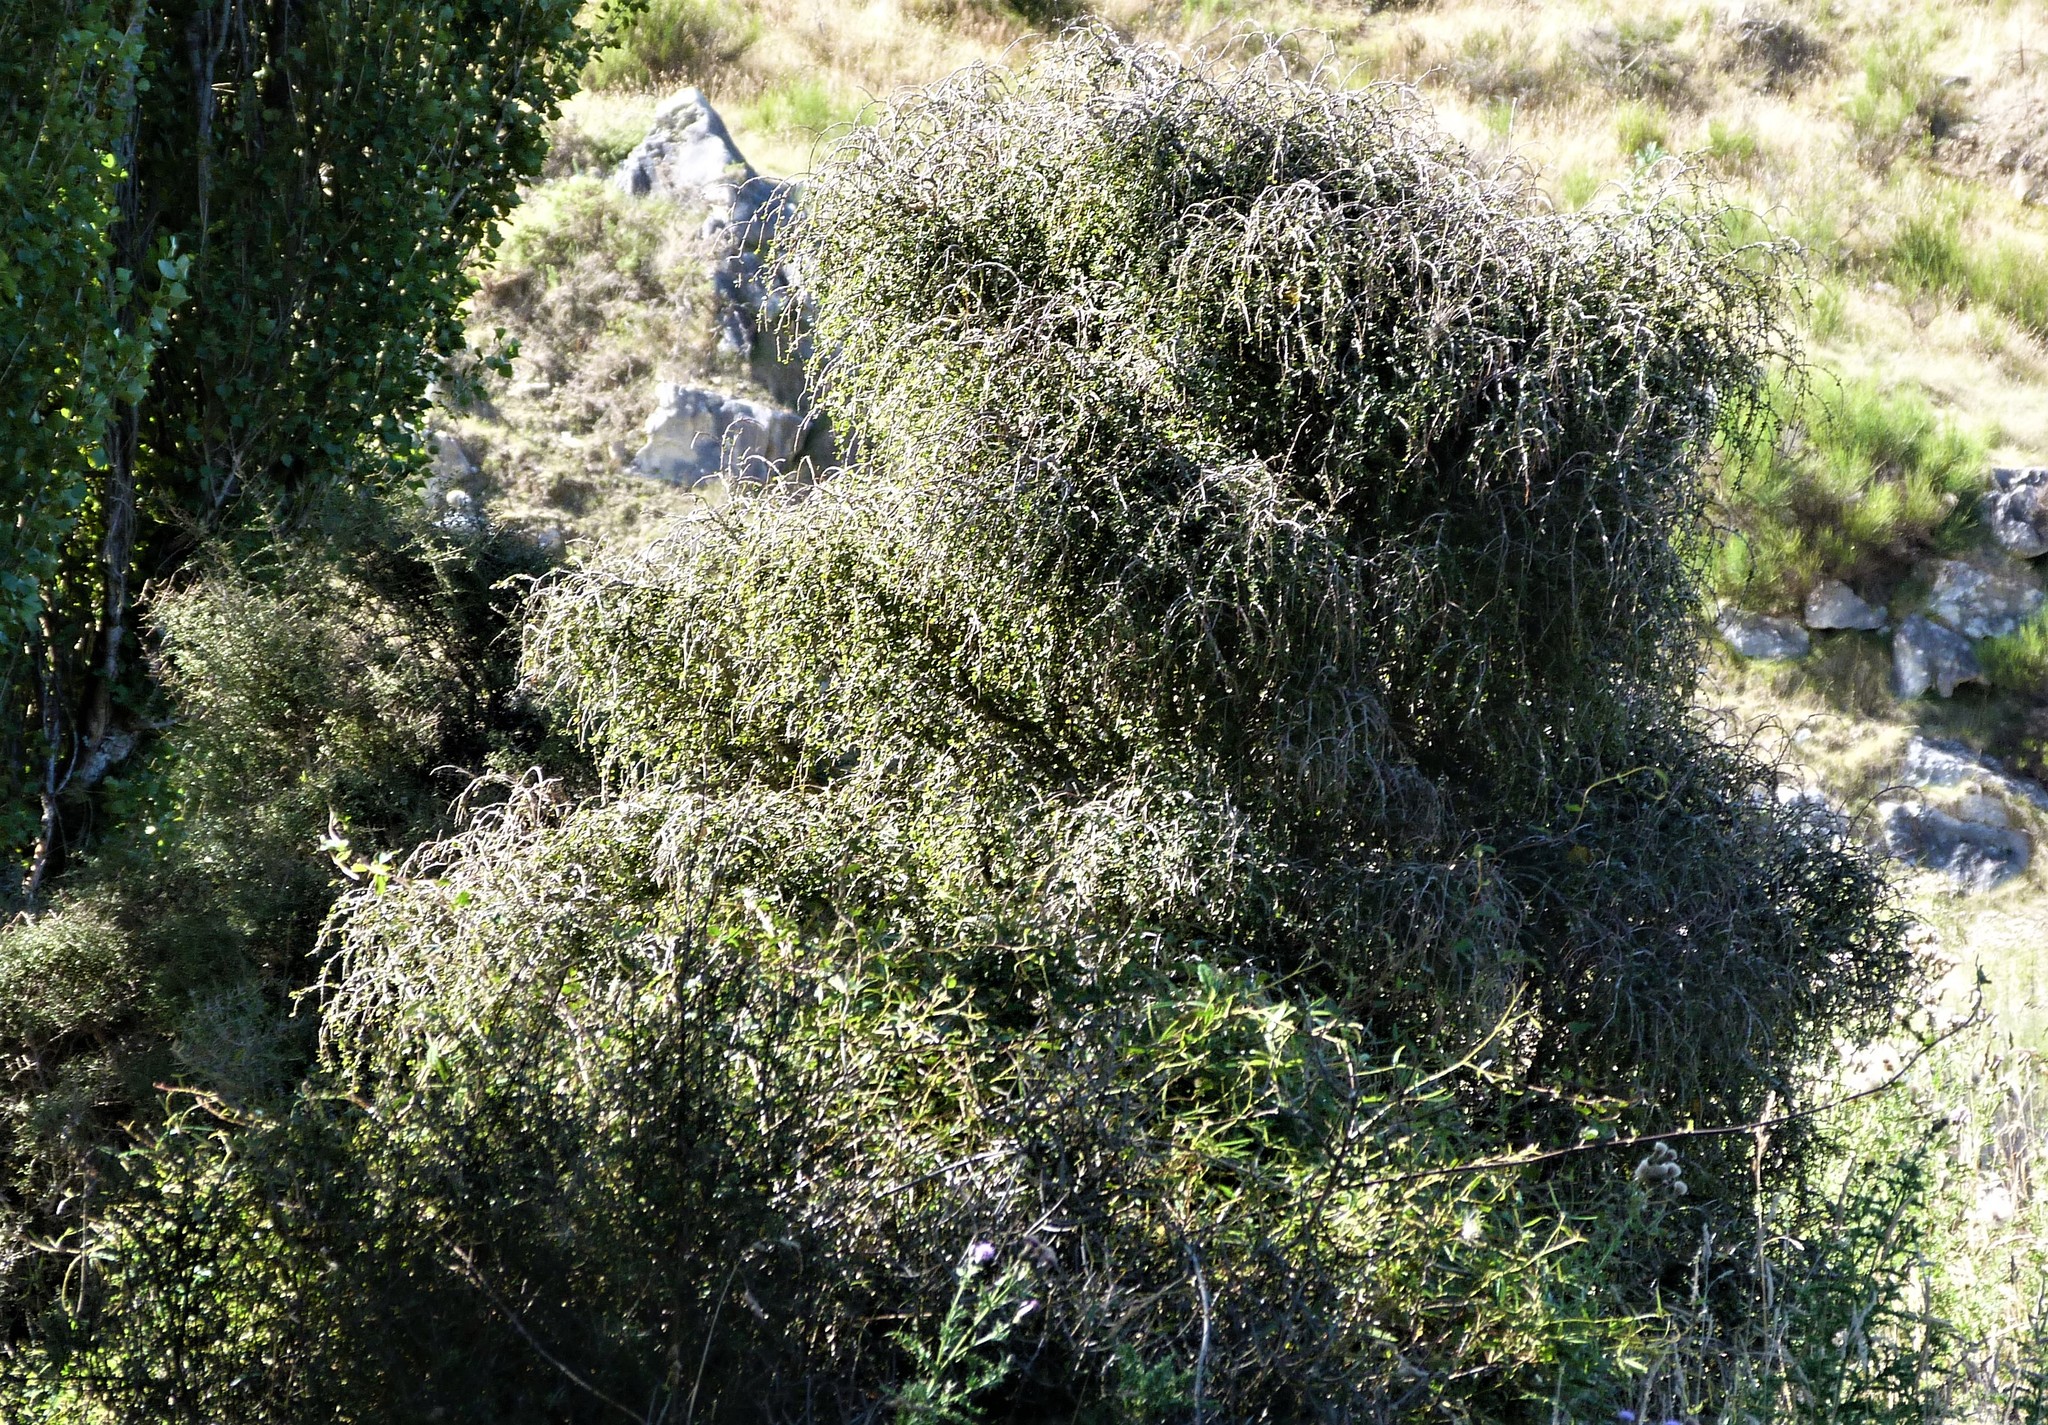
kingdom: Plantae
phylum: Tracheophyta
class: Magnoliopsida
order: Ericales
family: Primulaceae
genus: Myrsine
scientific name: Myrsine divaricata
